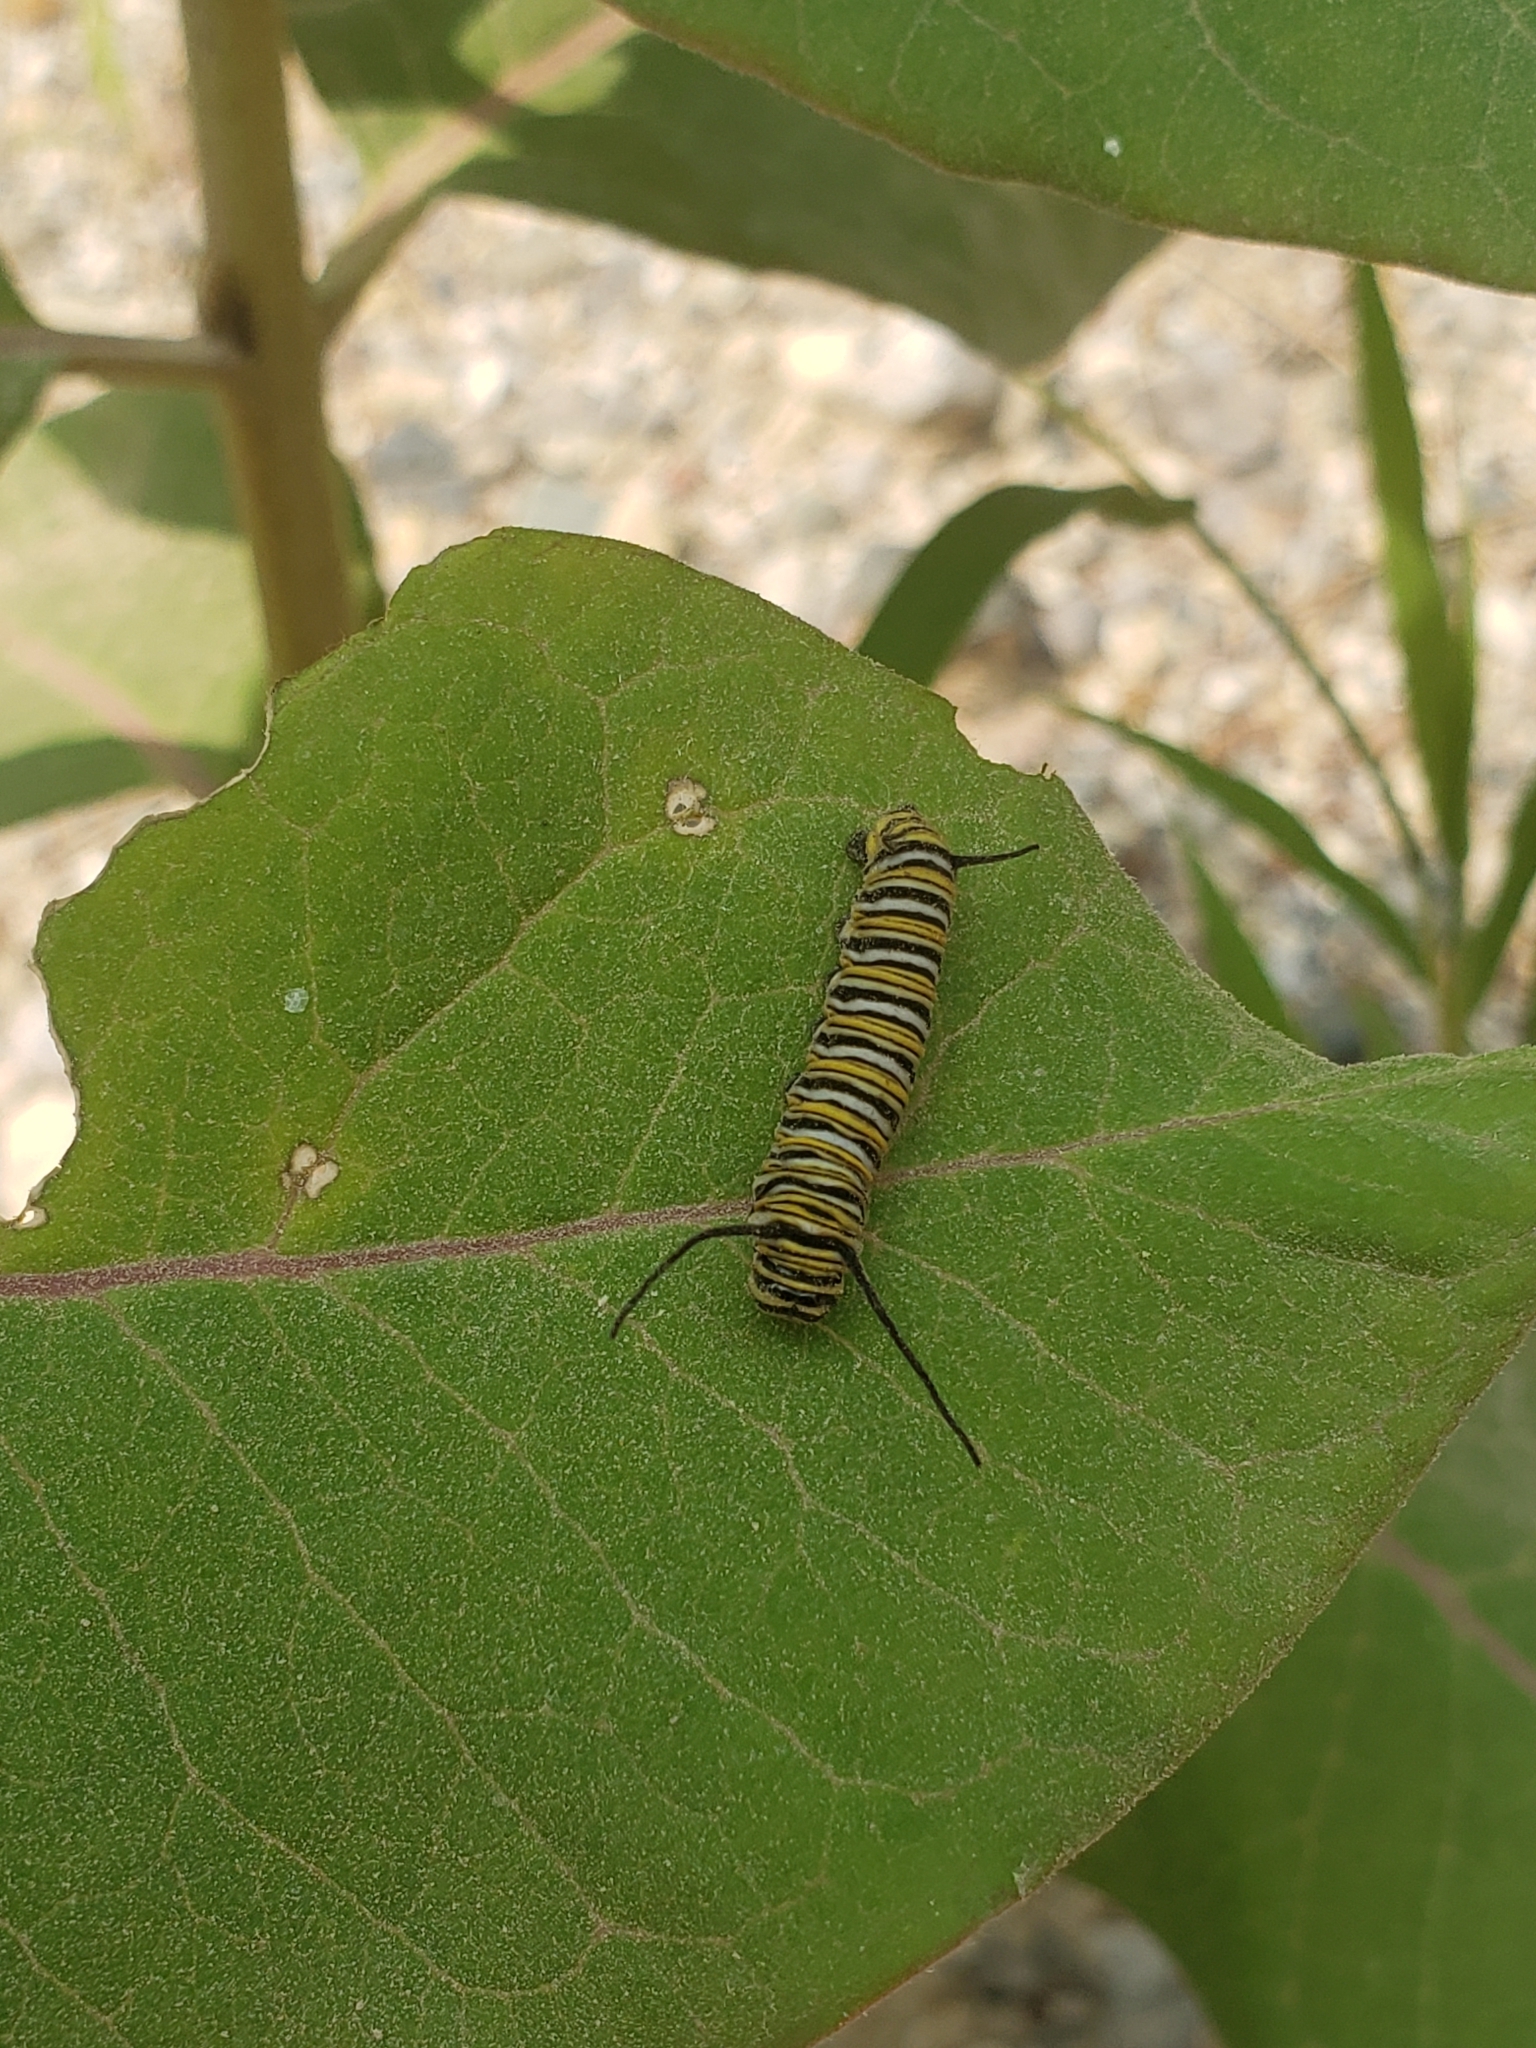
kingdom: Animalia
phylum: Arthropoda
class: Insecta
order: Lepidoptera
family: Nymphalidae
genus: Danaus
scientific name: Danaus plexippus
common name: Monarch
